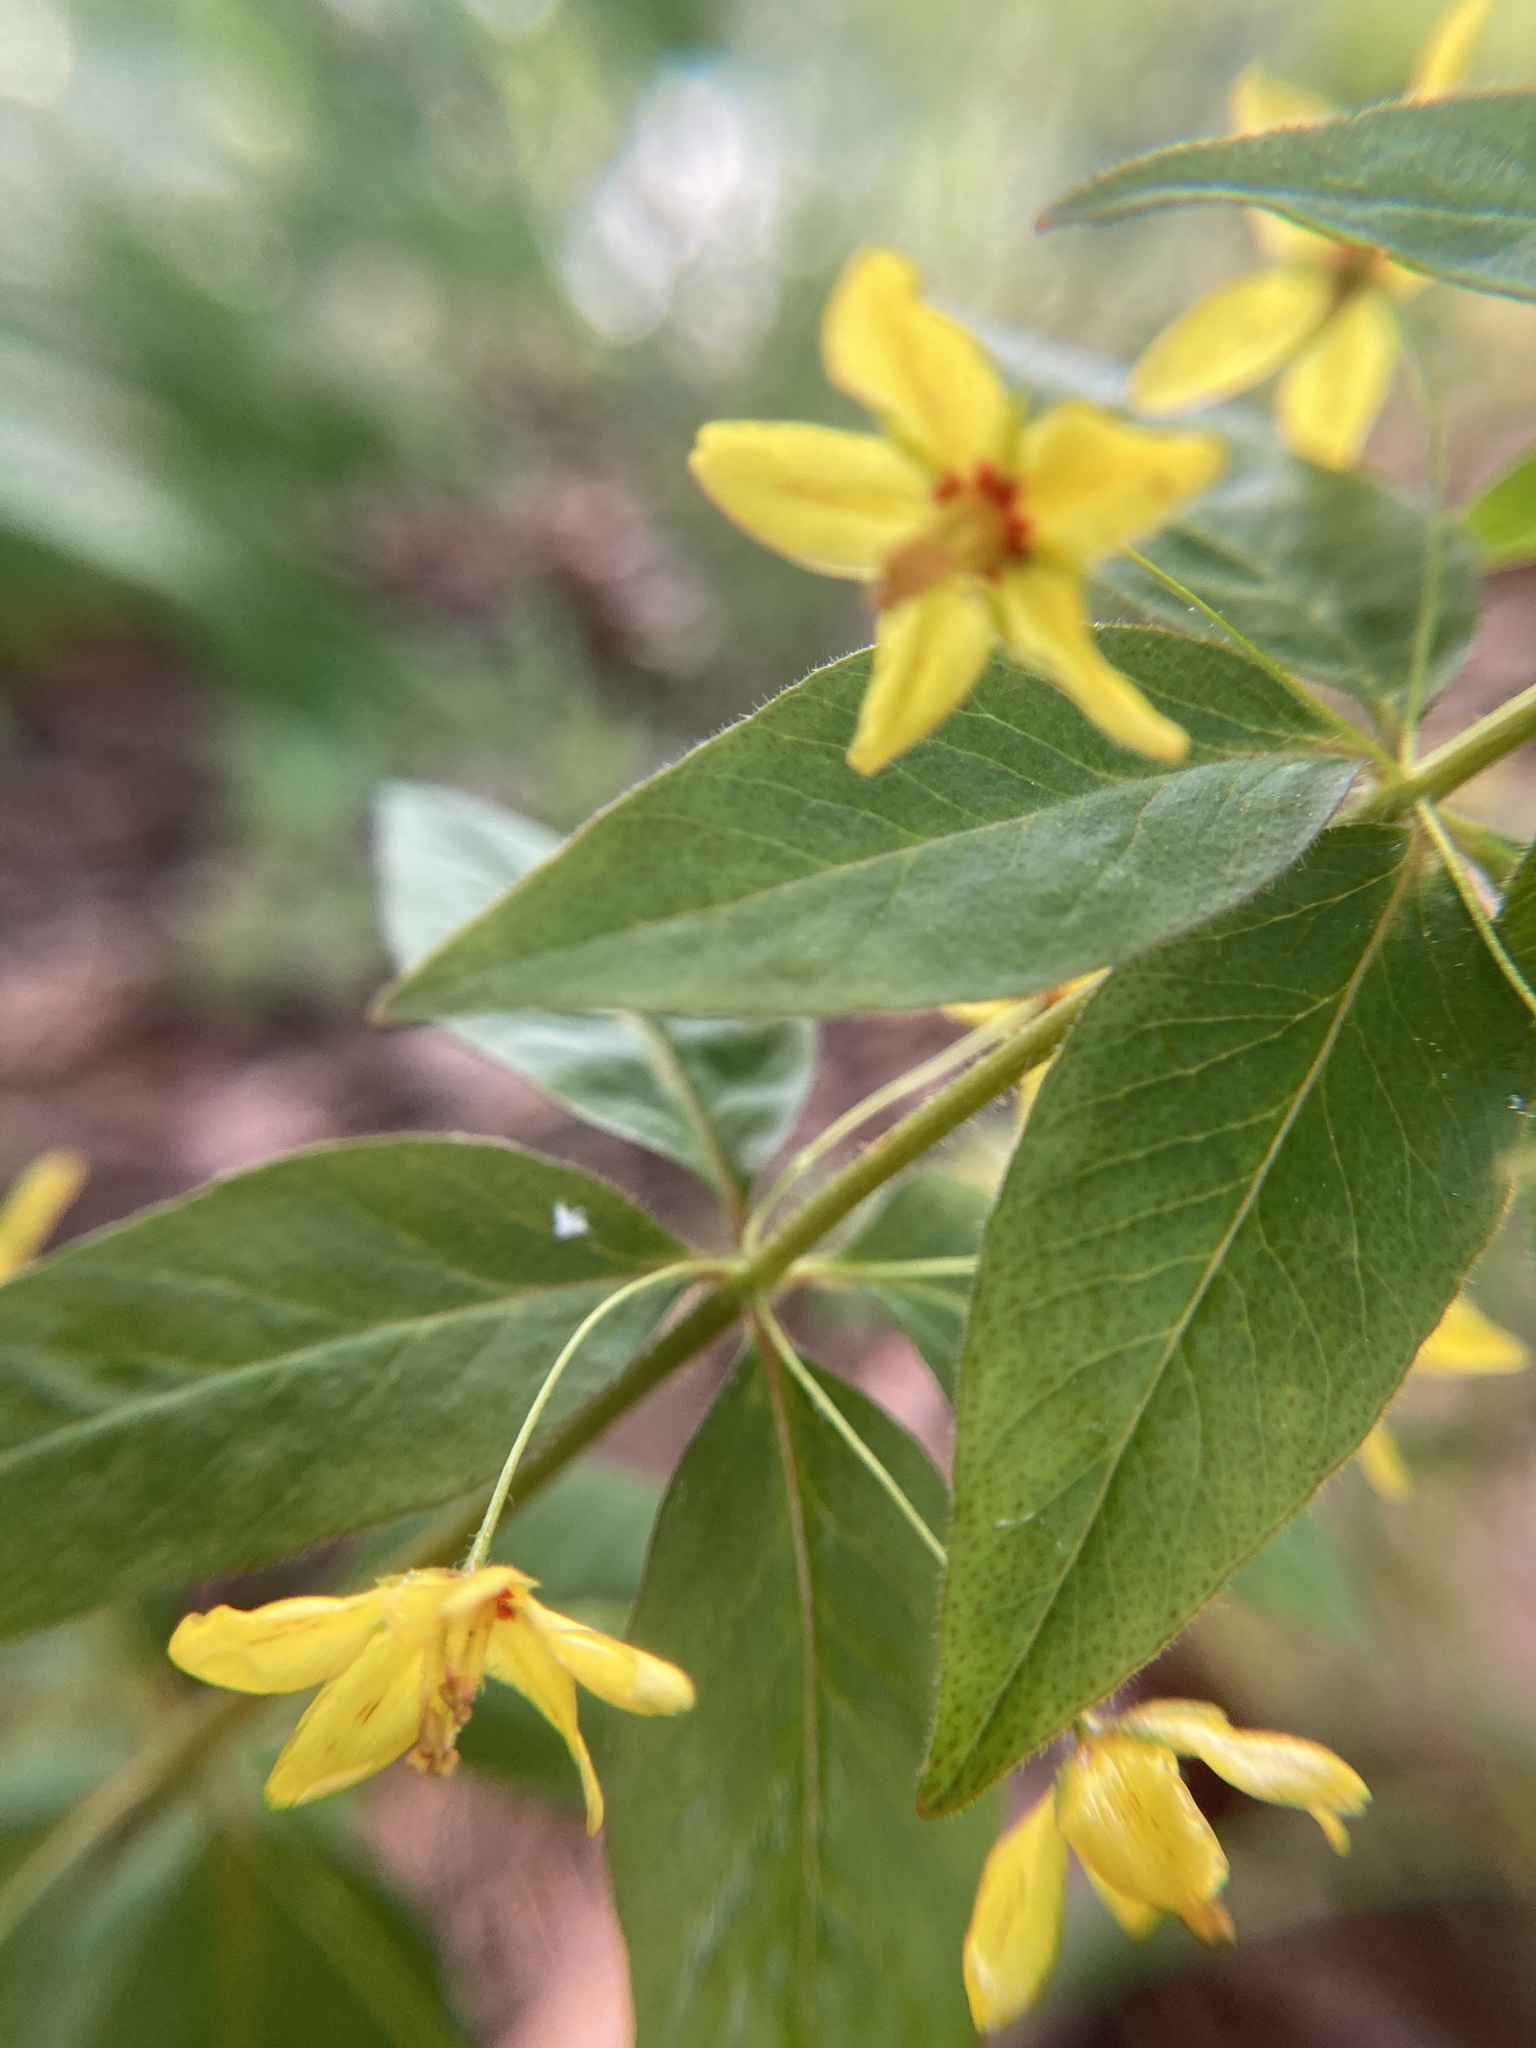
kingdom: Plantae
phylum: Tracheophyta
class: Magnoliopsida
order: Ericales
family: Primulaceae
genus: Lysimachia
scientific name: Lysimachia quadrifolia
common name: Whorled loosestrife
